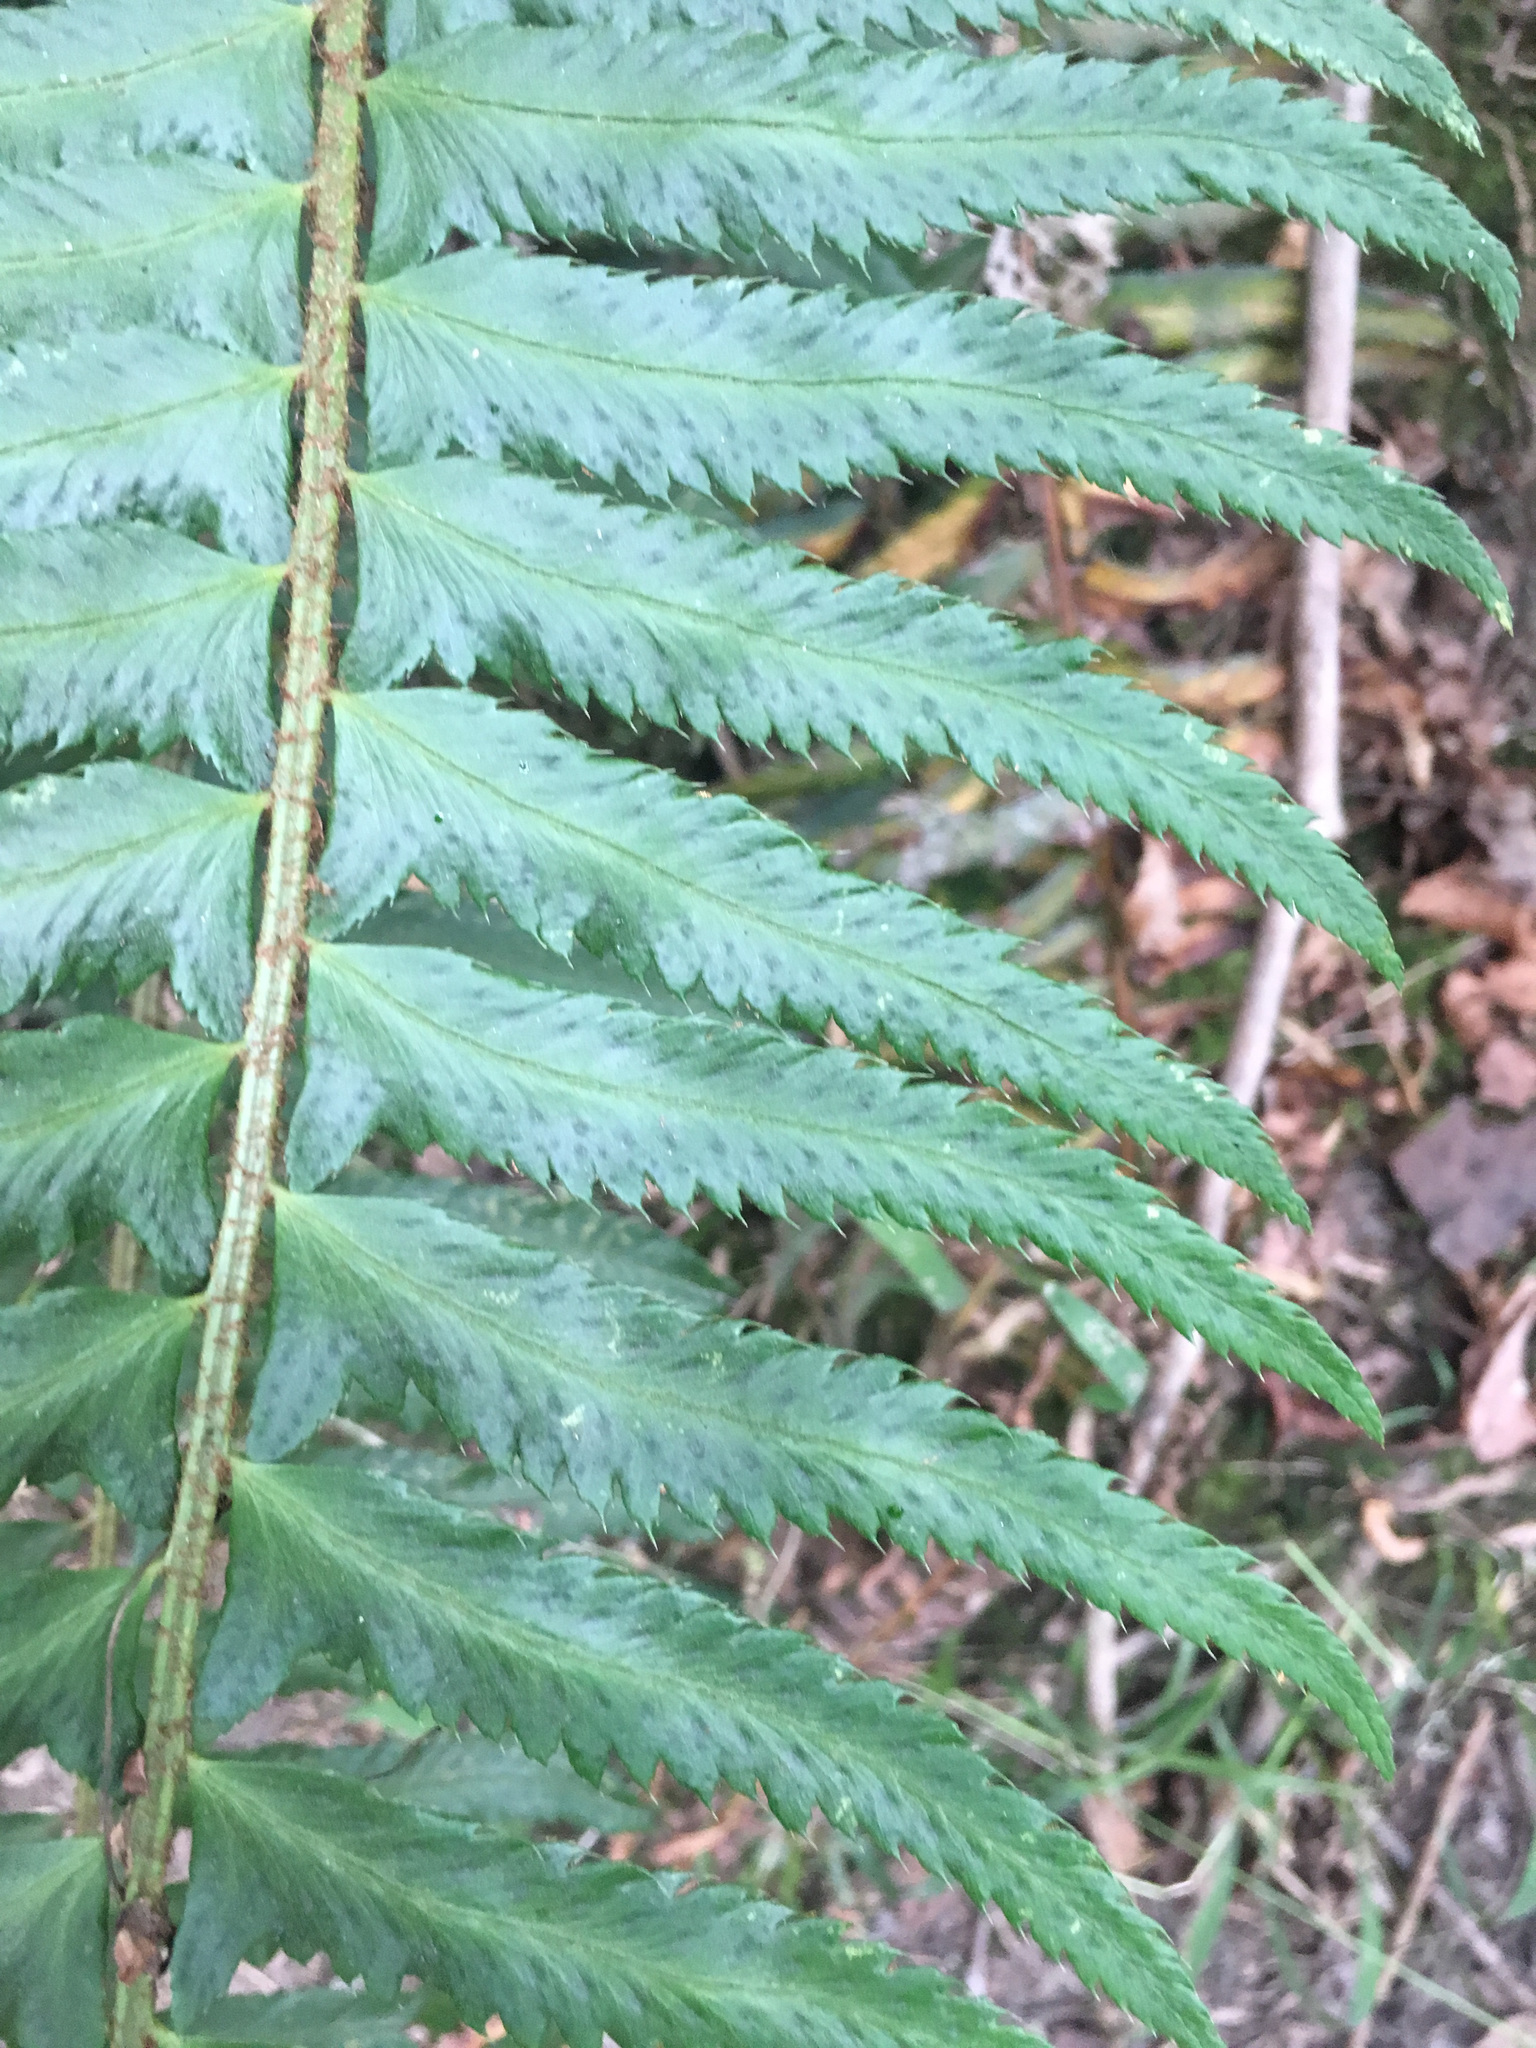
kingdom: Plantae
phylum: Tracheophyta
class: Polypodiopsida
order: Polypodiales
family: Dryopteridaceae
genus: Polystichum
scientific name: Polystichum munitum
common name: Western sword-fern
